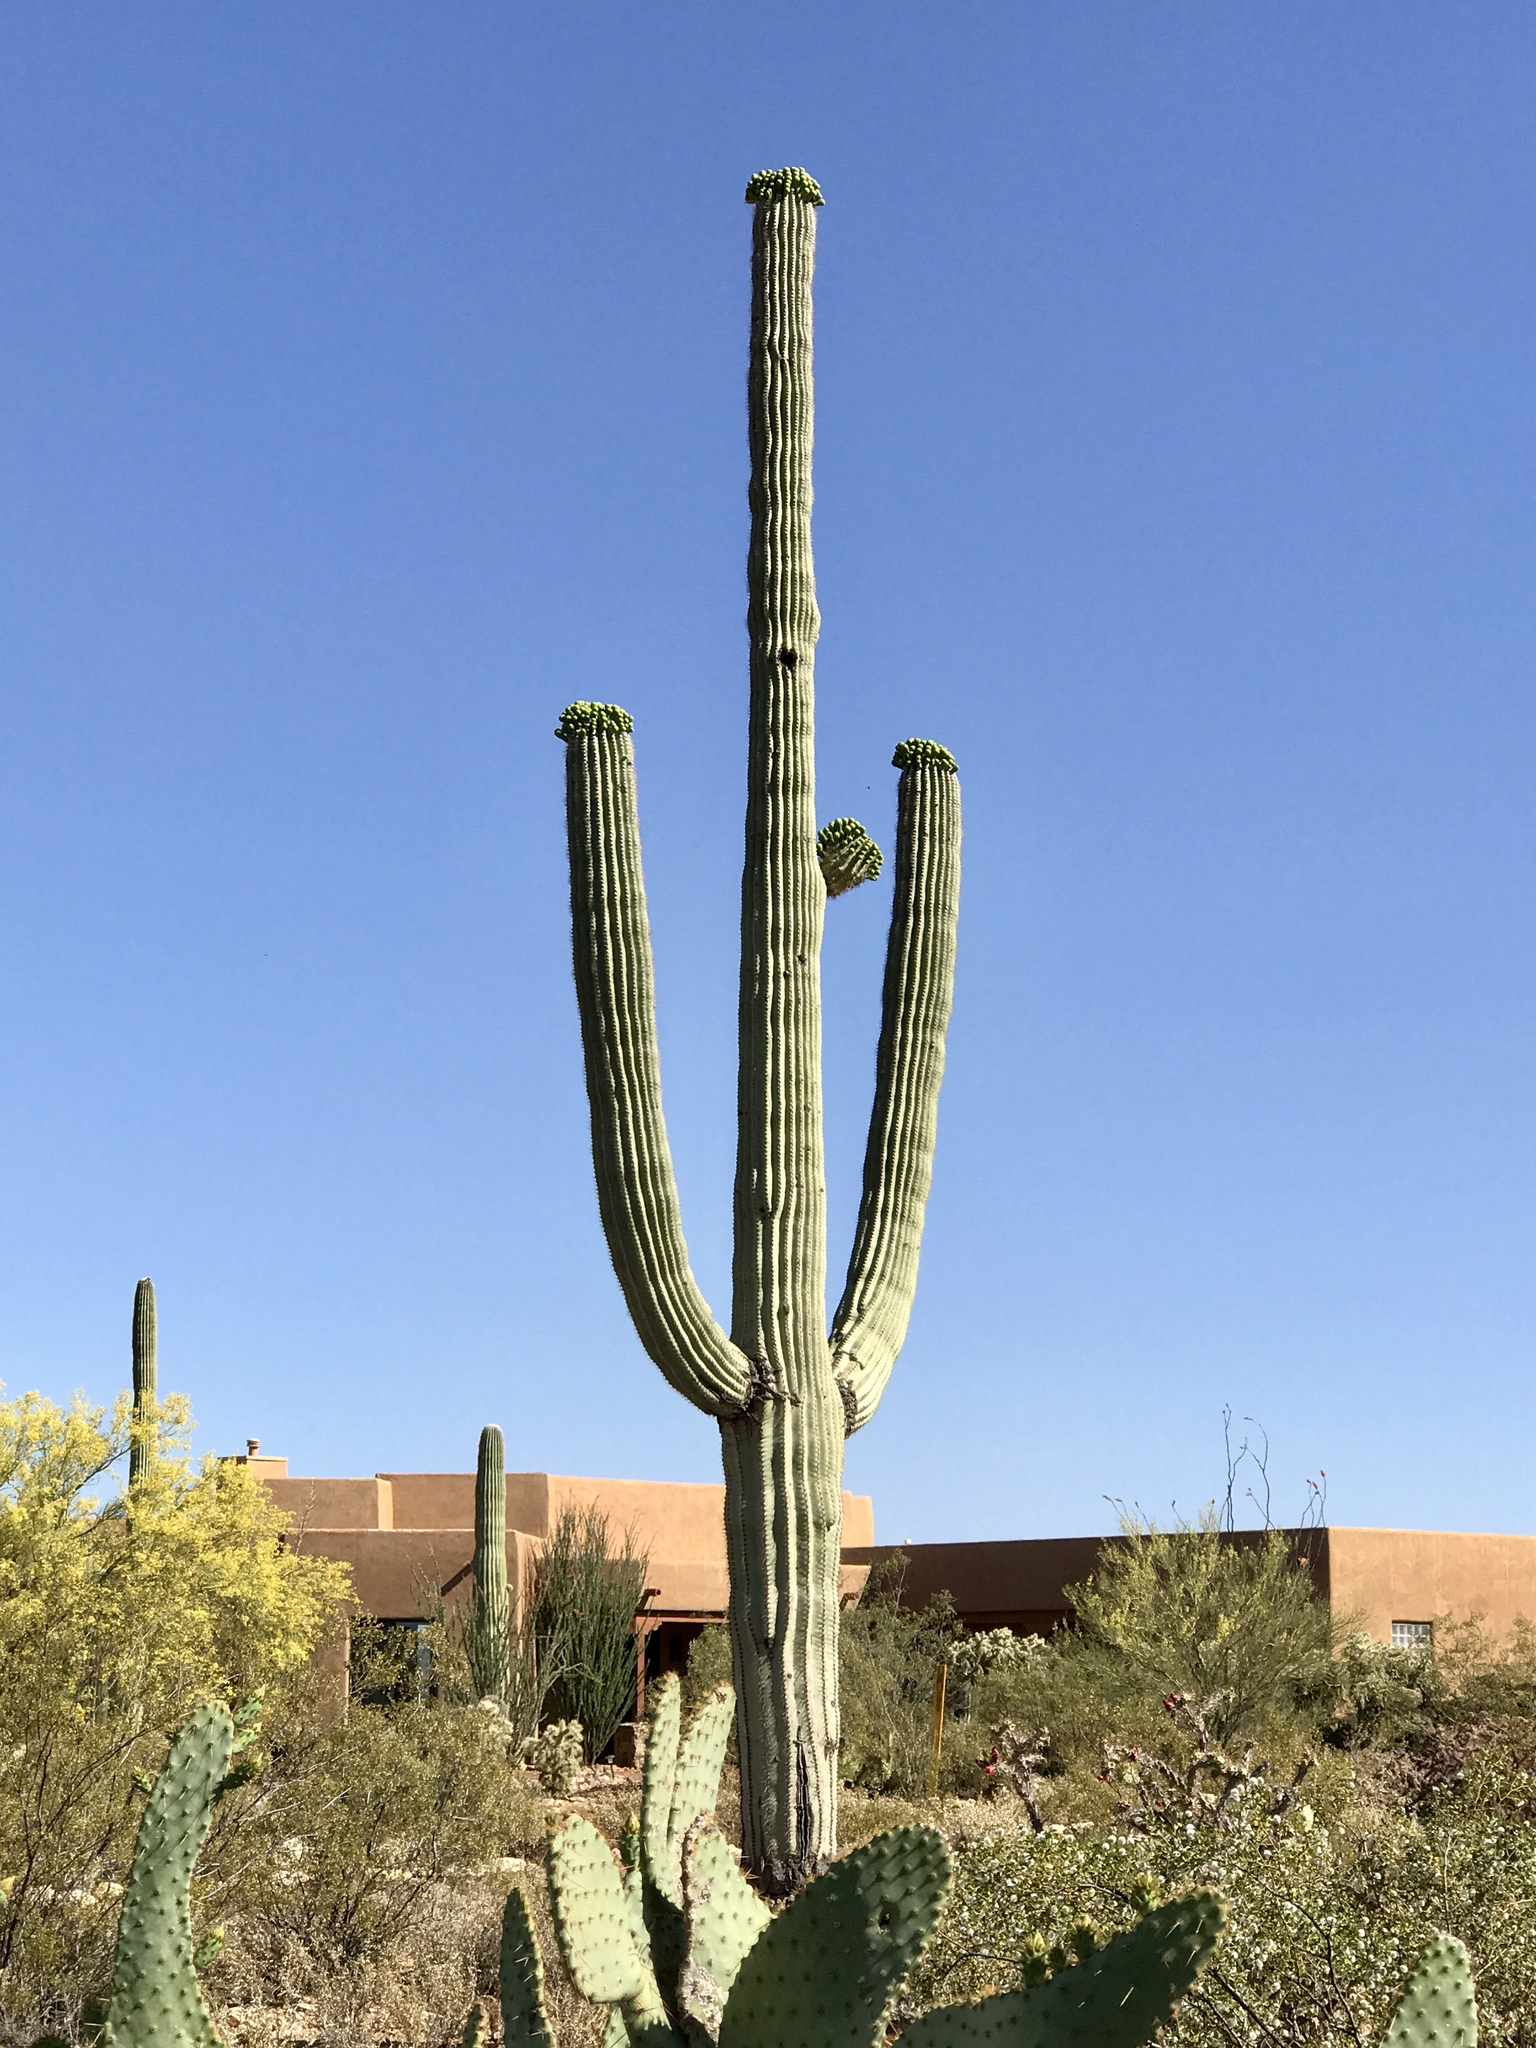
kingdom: Plantae
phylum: Tracheophyta
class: Magnoliopsida
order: Caryophyllales
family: Cactaceae
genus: Carnegiea
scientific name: Carnegiea gigantea
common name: Saguaro
